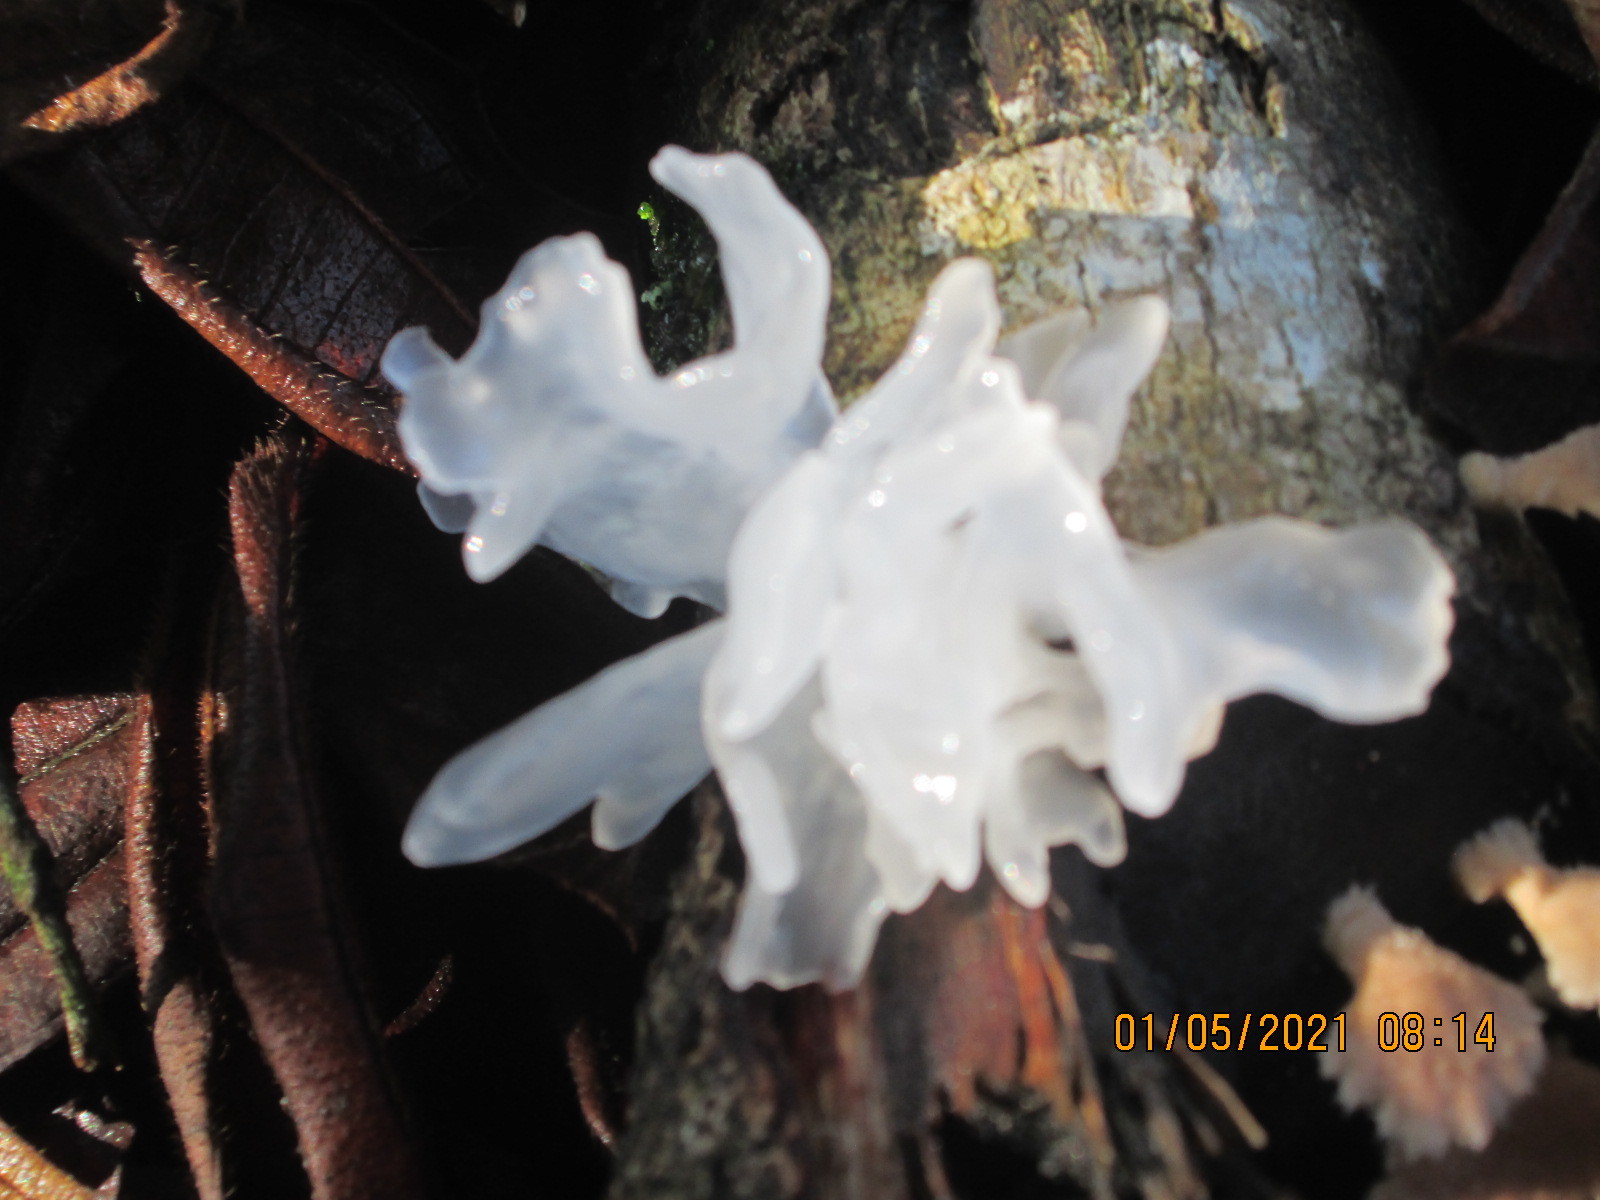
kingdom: Fungi
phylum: Basidiomycota
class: Tremellomycetes
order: Tremellales
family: Tremellaceae
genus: Tremella
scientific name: Tremella fuciformis
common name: Snow fungus
